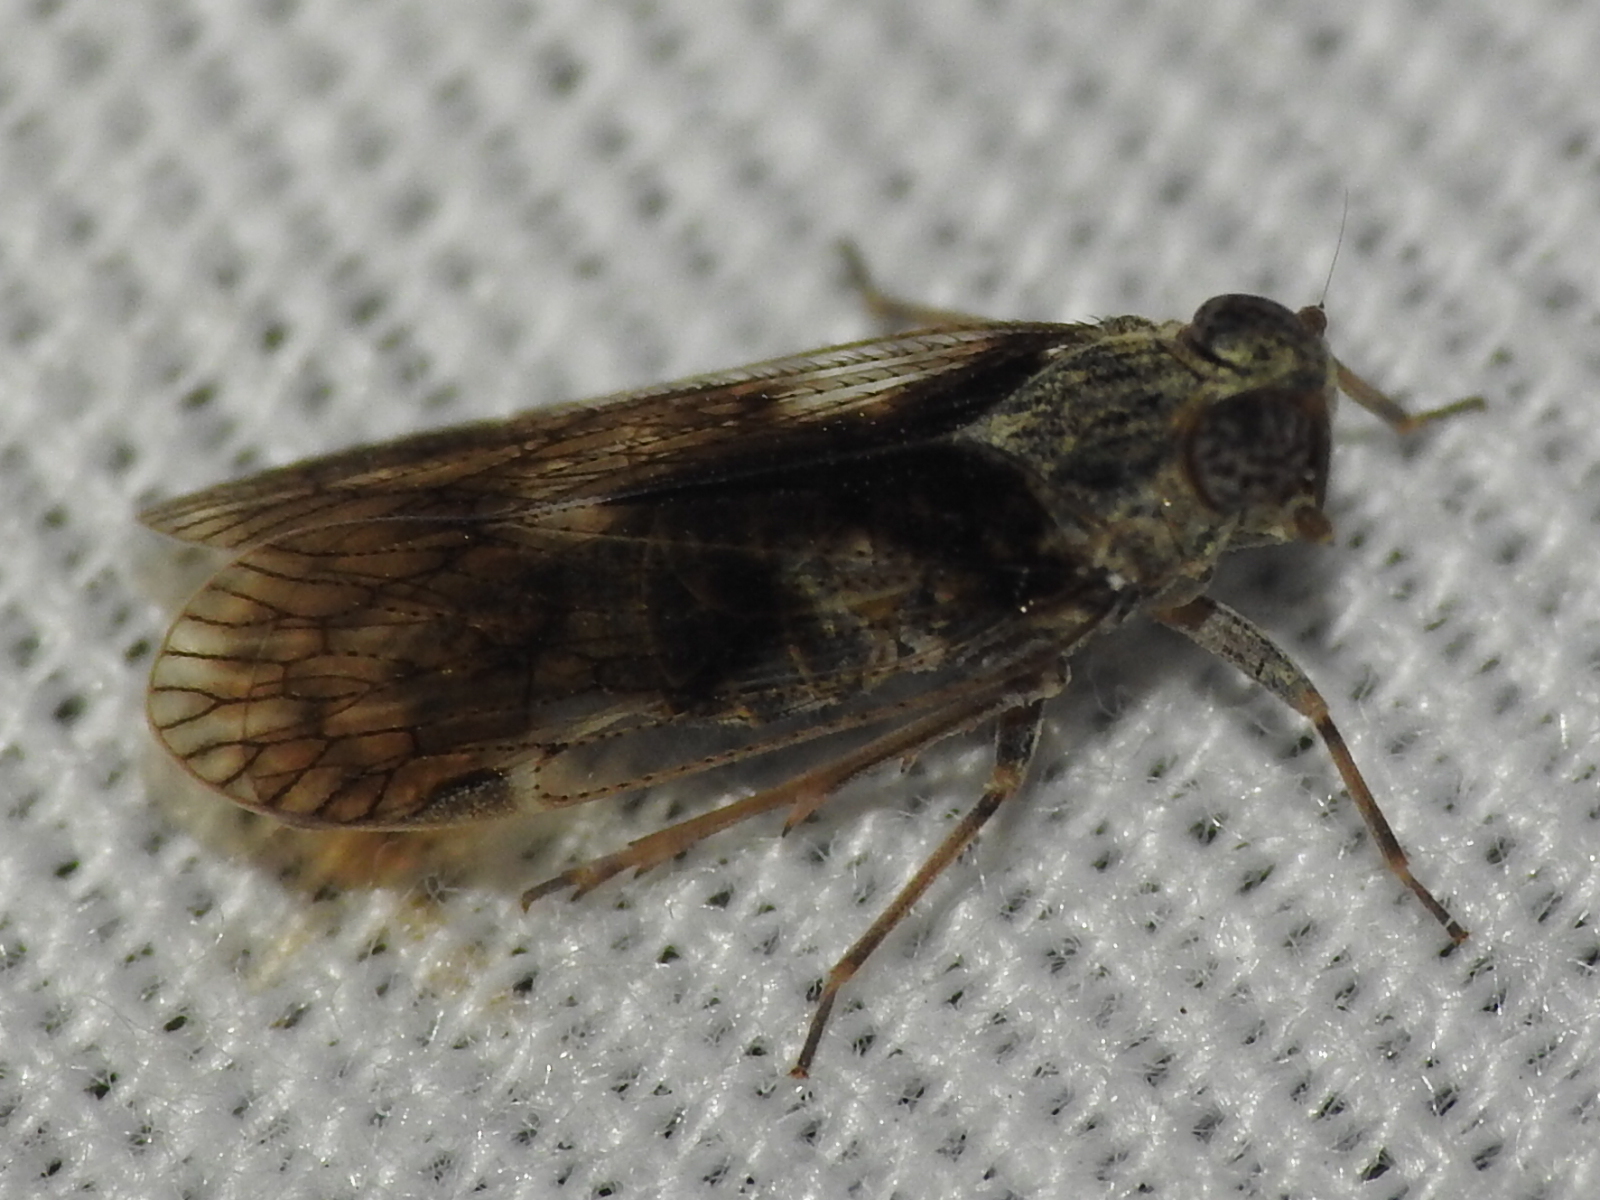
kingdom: Animalia
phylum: Arthropoda
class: Insecta
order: Hemiptera
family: Cixiidae
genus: Melanoliarus
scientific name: Melanoliarus aridus
